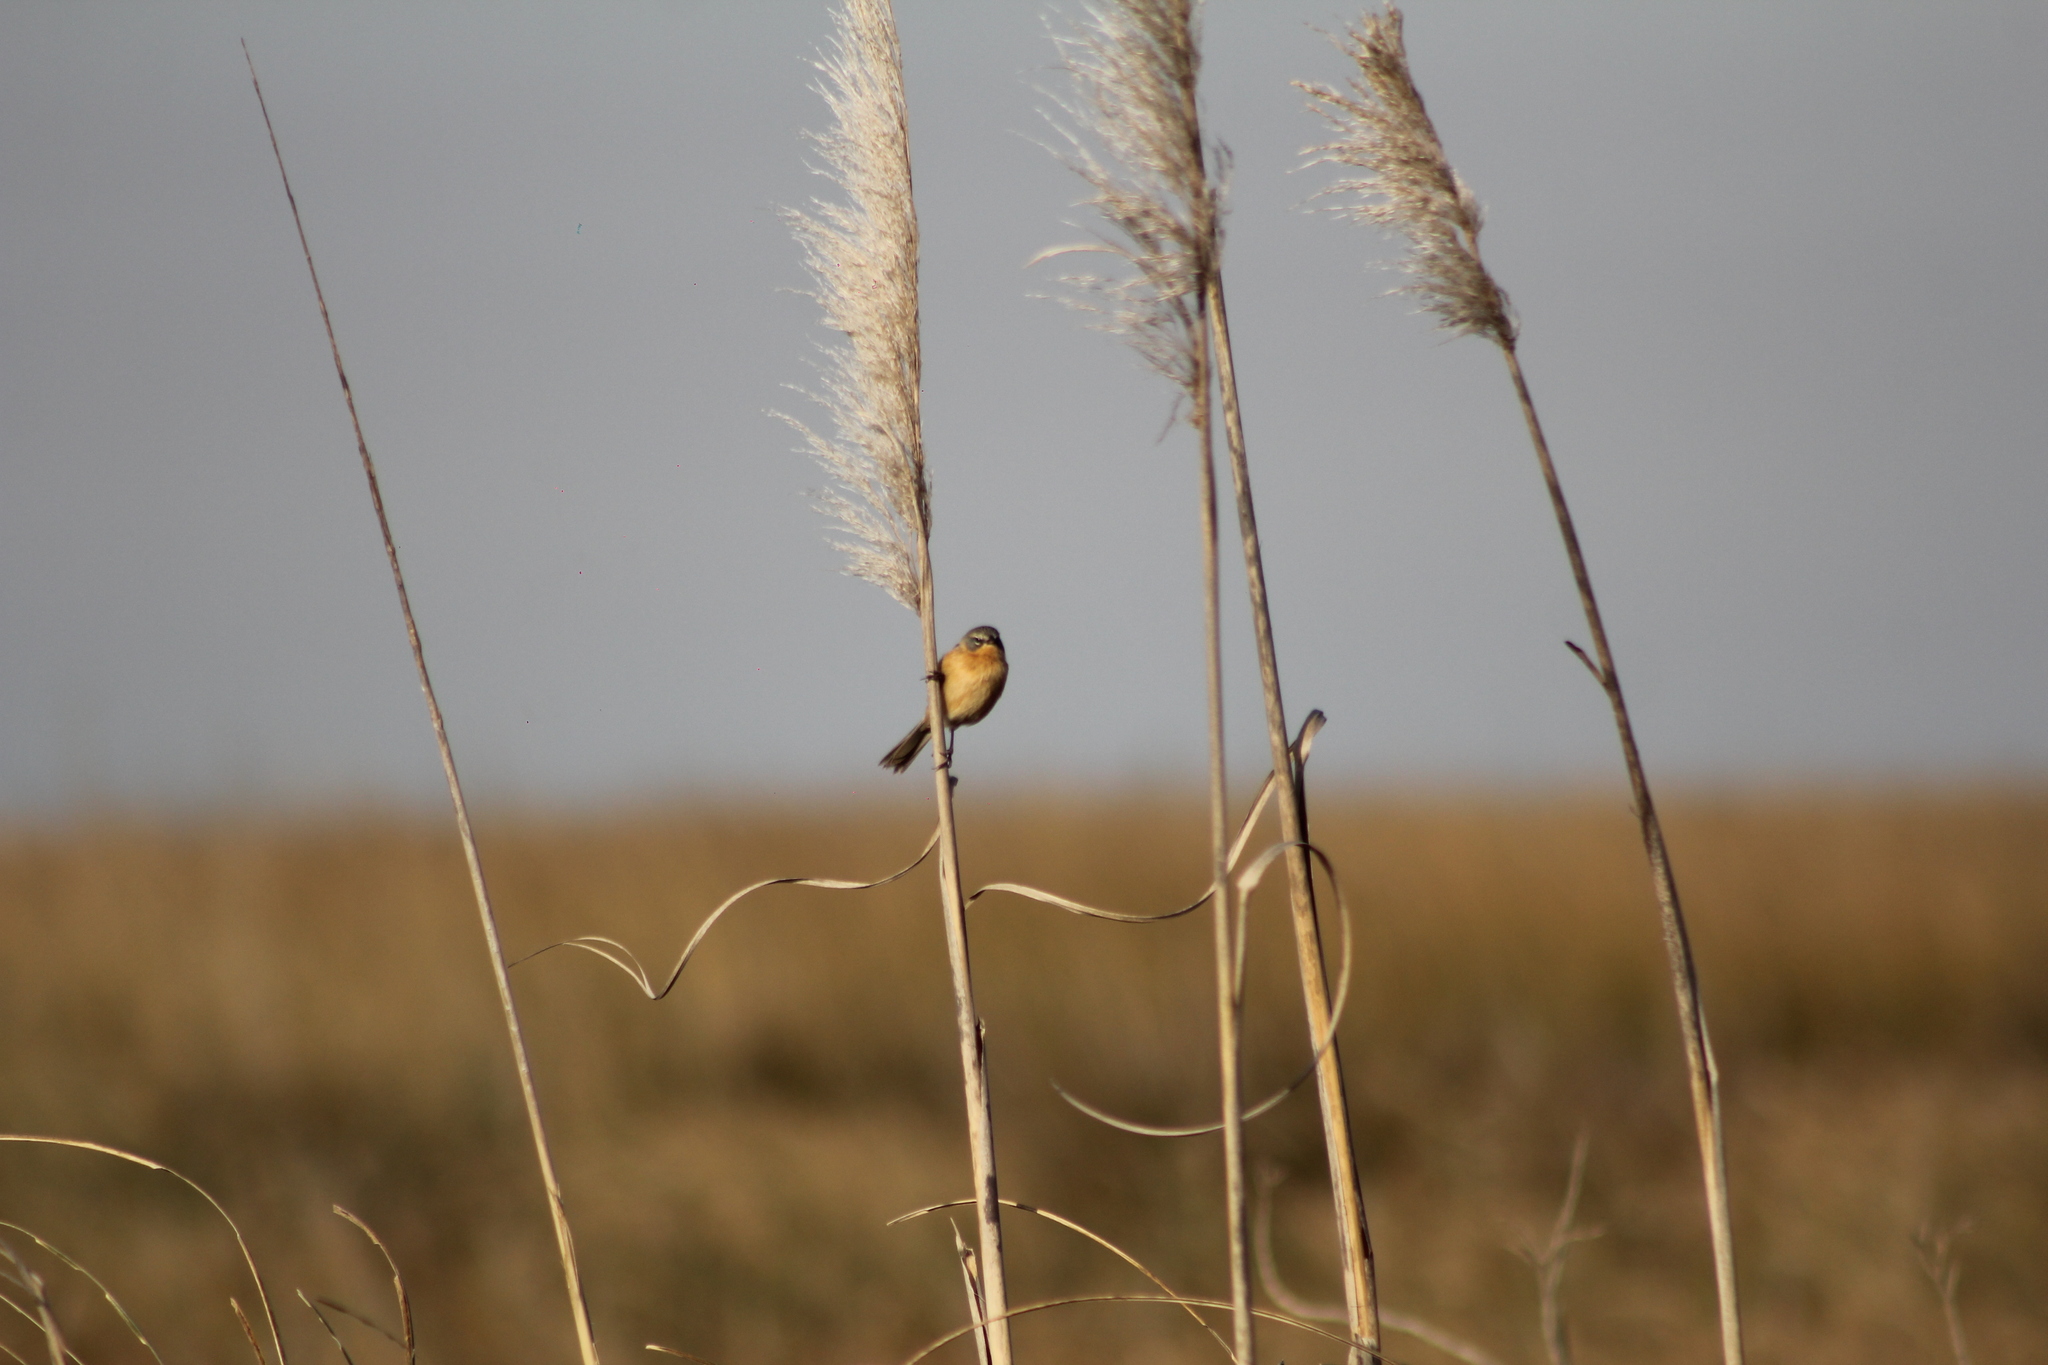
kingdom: Animalia
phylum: Chordata
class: Aves
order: Passeriformes
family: Thraupidae
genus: Donacospiza
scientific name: Donacospiza albifrons
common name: Long-tailed reed finch
